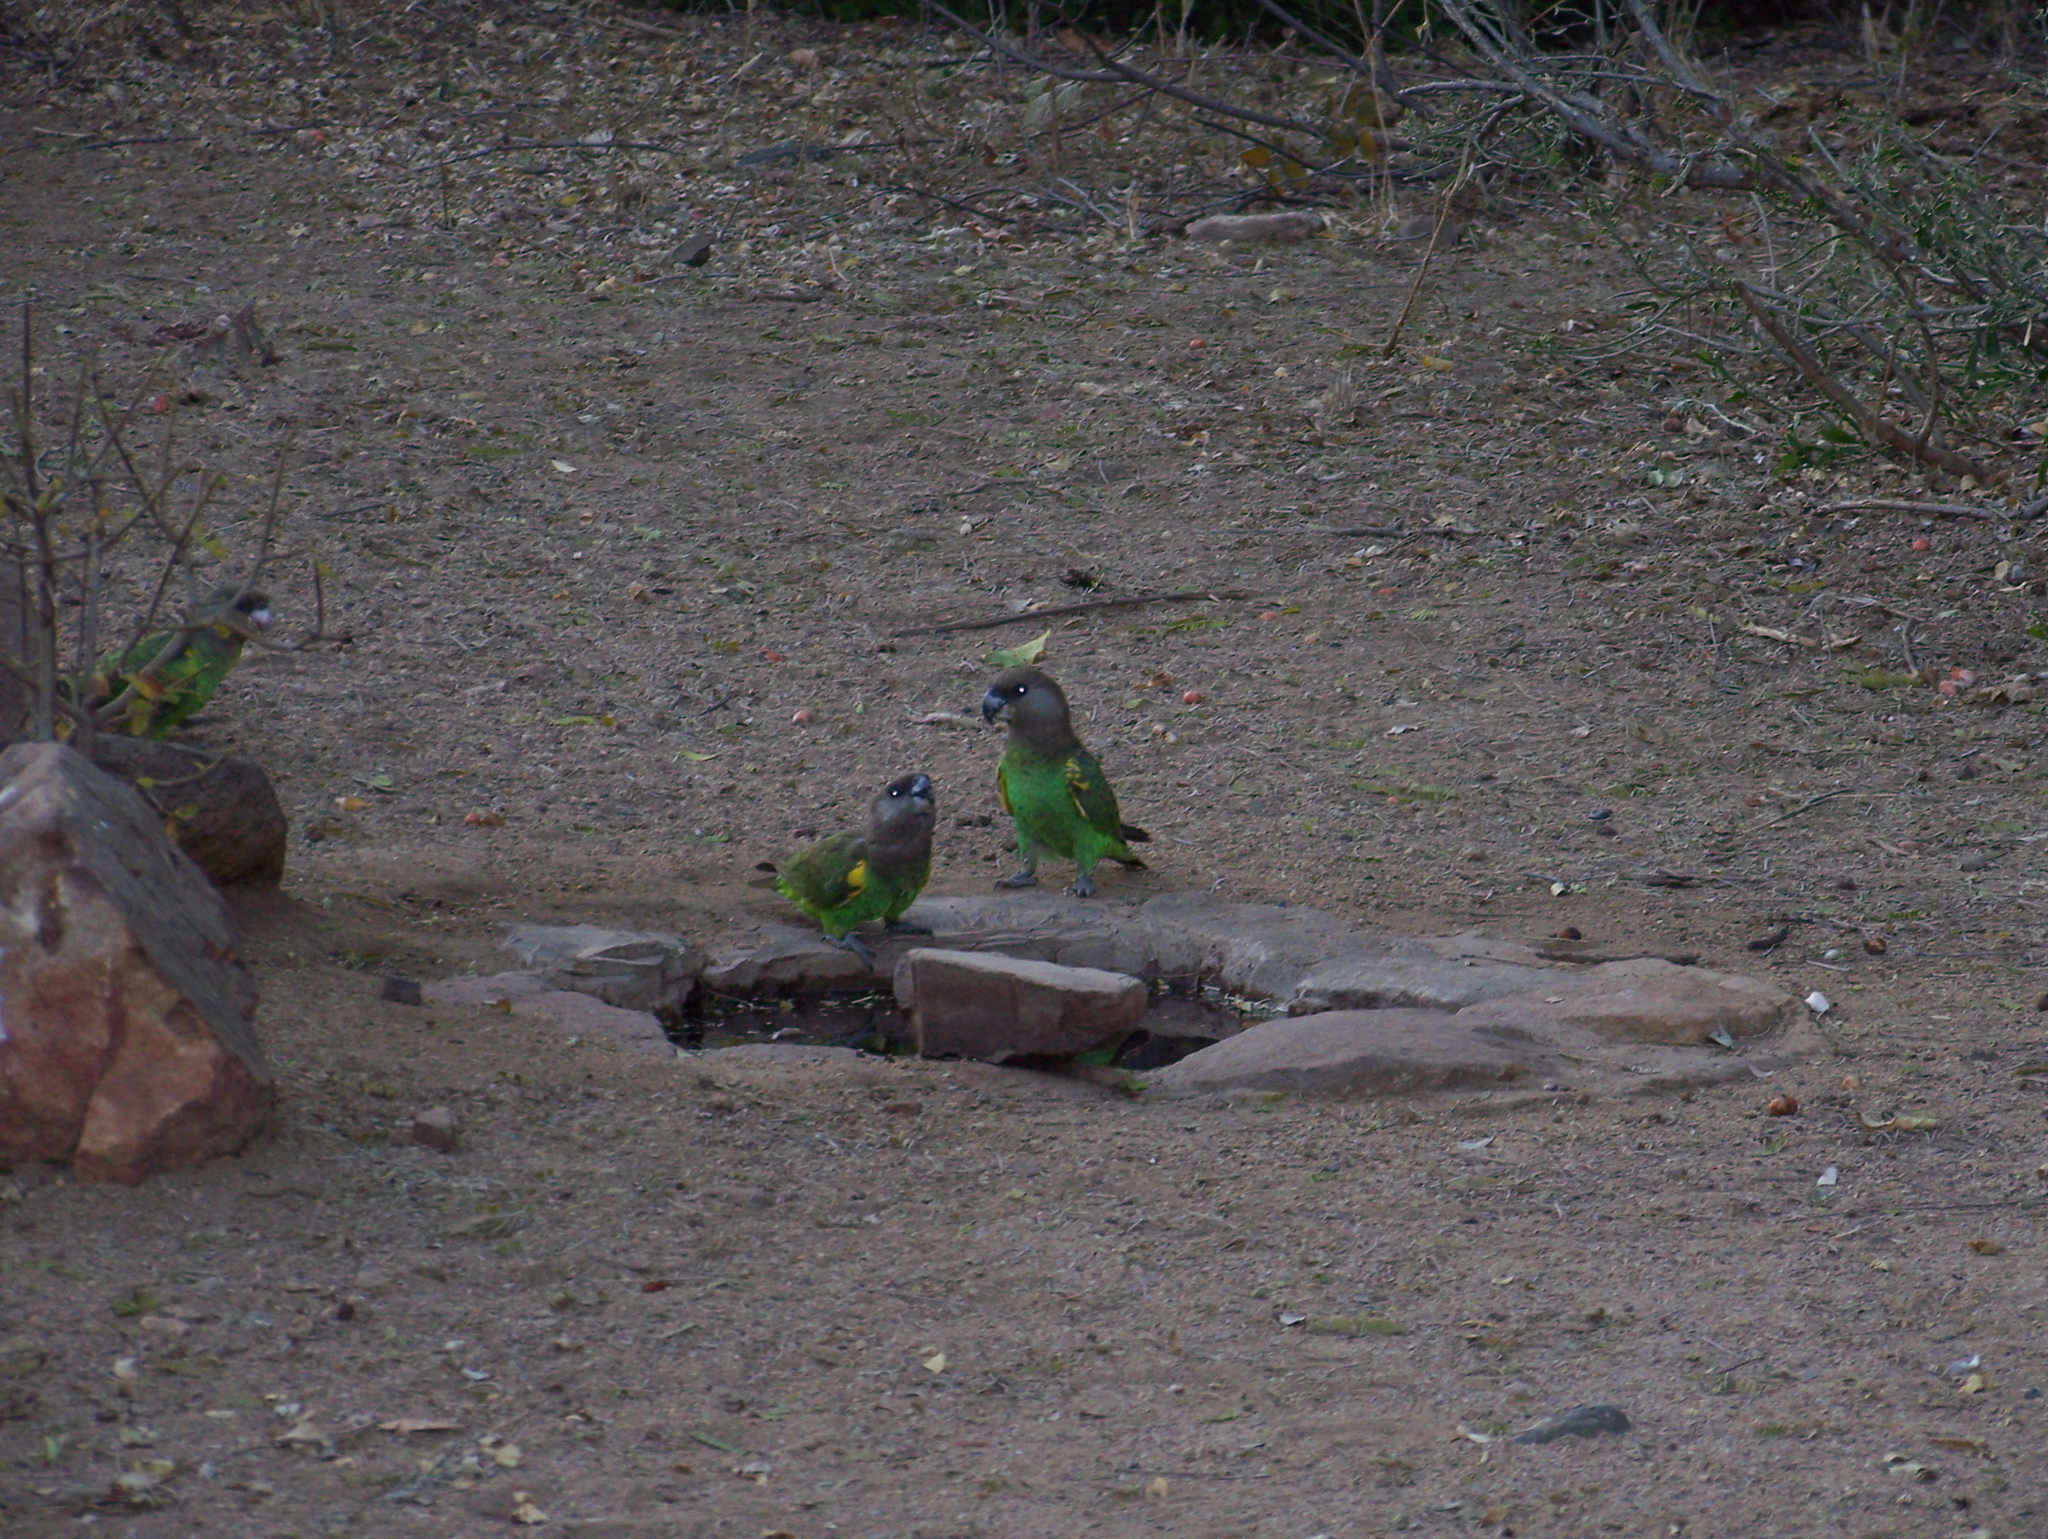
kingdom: Animalia
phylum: Chordata
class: Aves
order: Psittaciformes
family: Psittacidae
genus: Poicephalus
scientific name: Poicephalus meyeri
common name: Meyer's parrot
